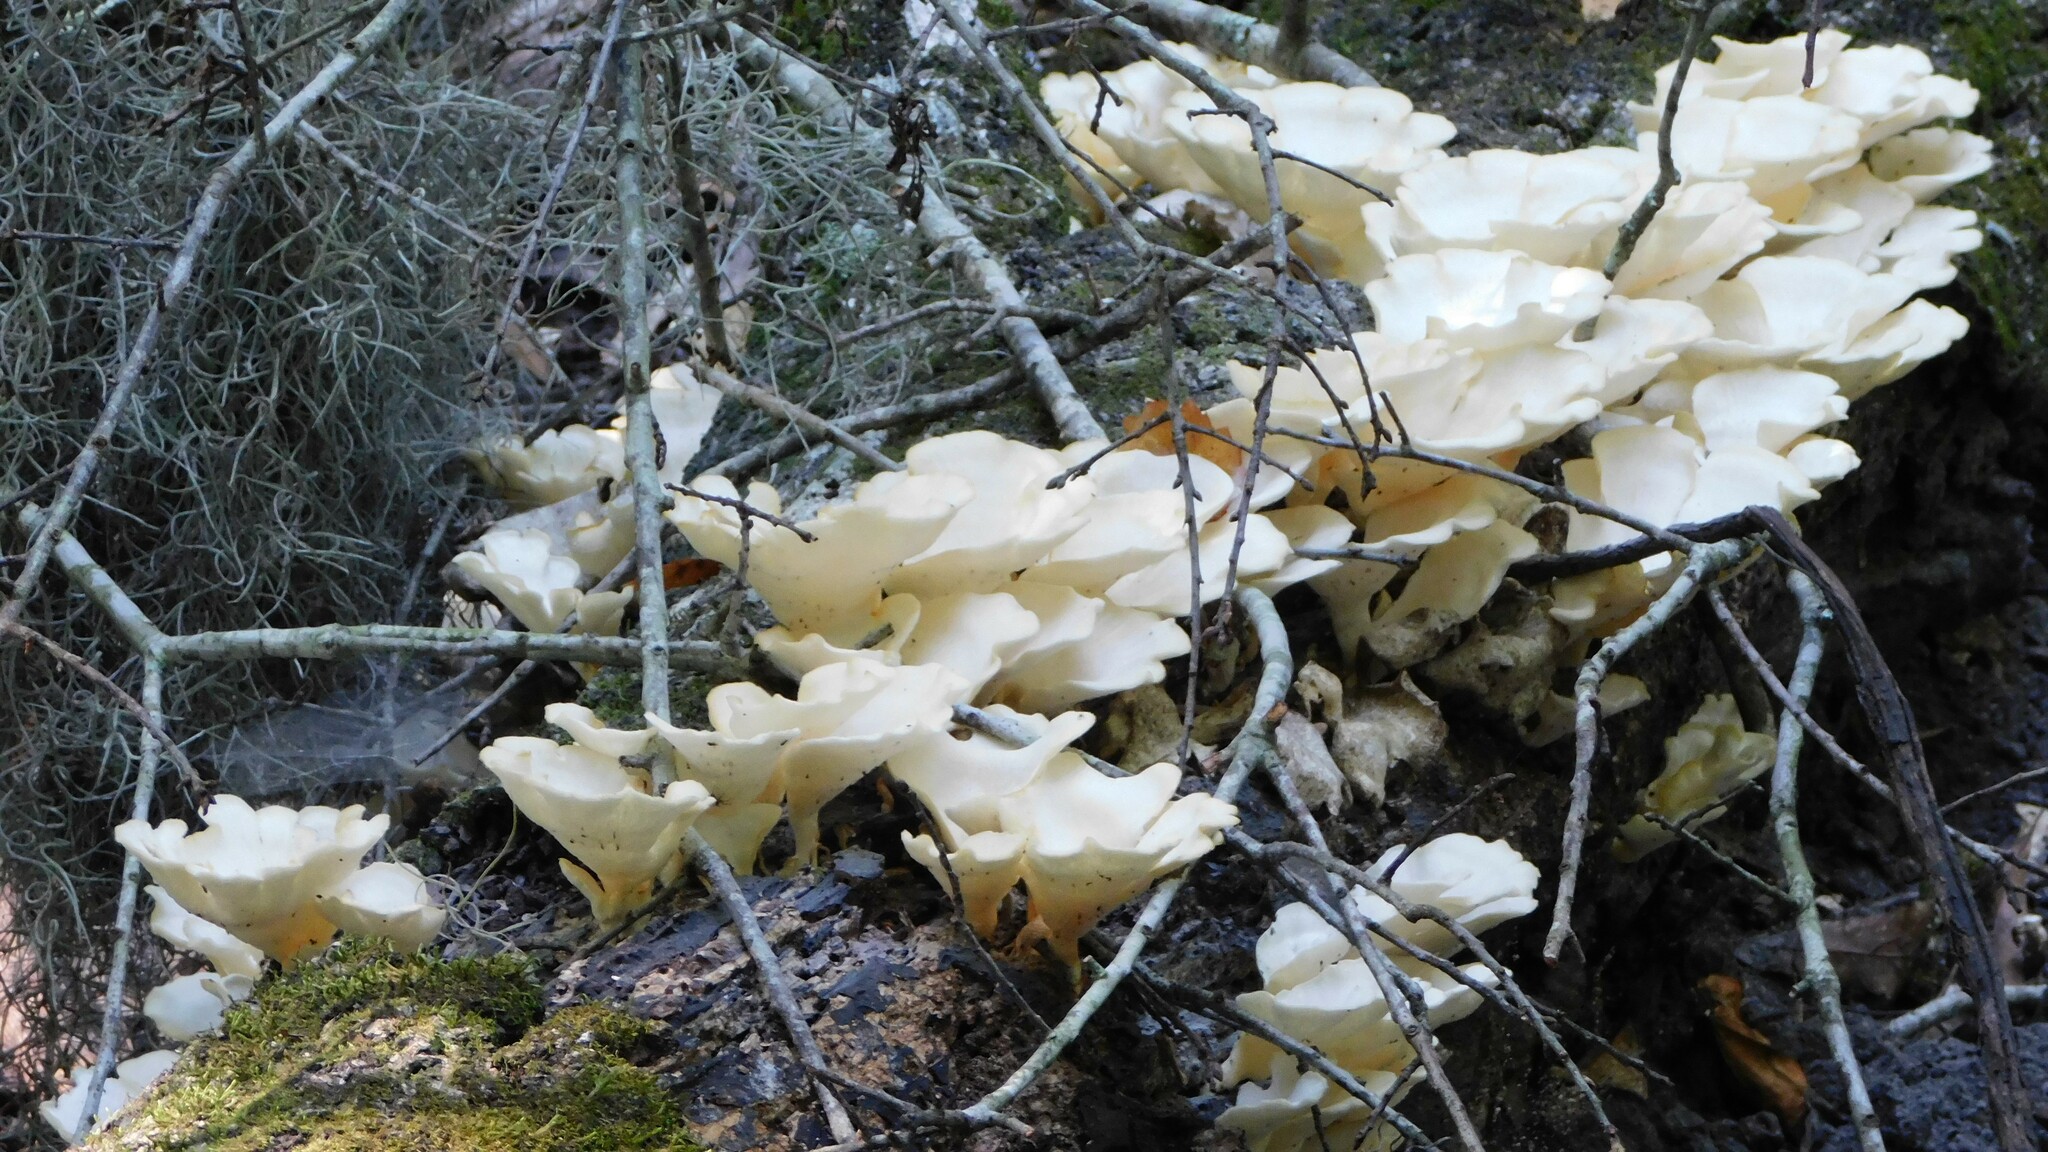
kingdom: Fungi
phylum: Basidiomycota
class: Agaricomycetes
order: Polyporales
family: Polyporaceae
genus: Favolus
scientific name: Favolus tenuiculus
